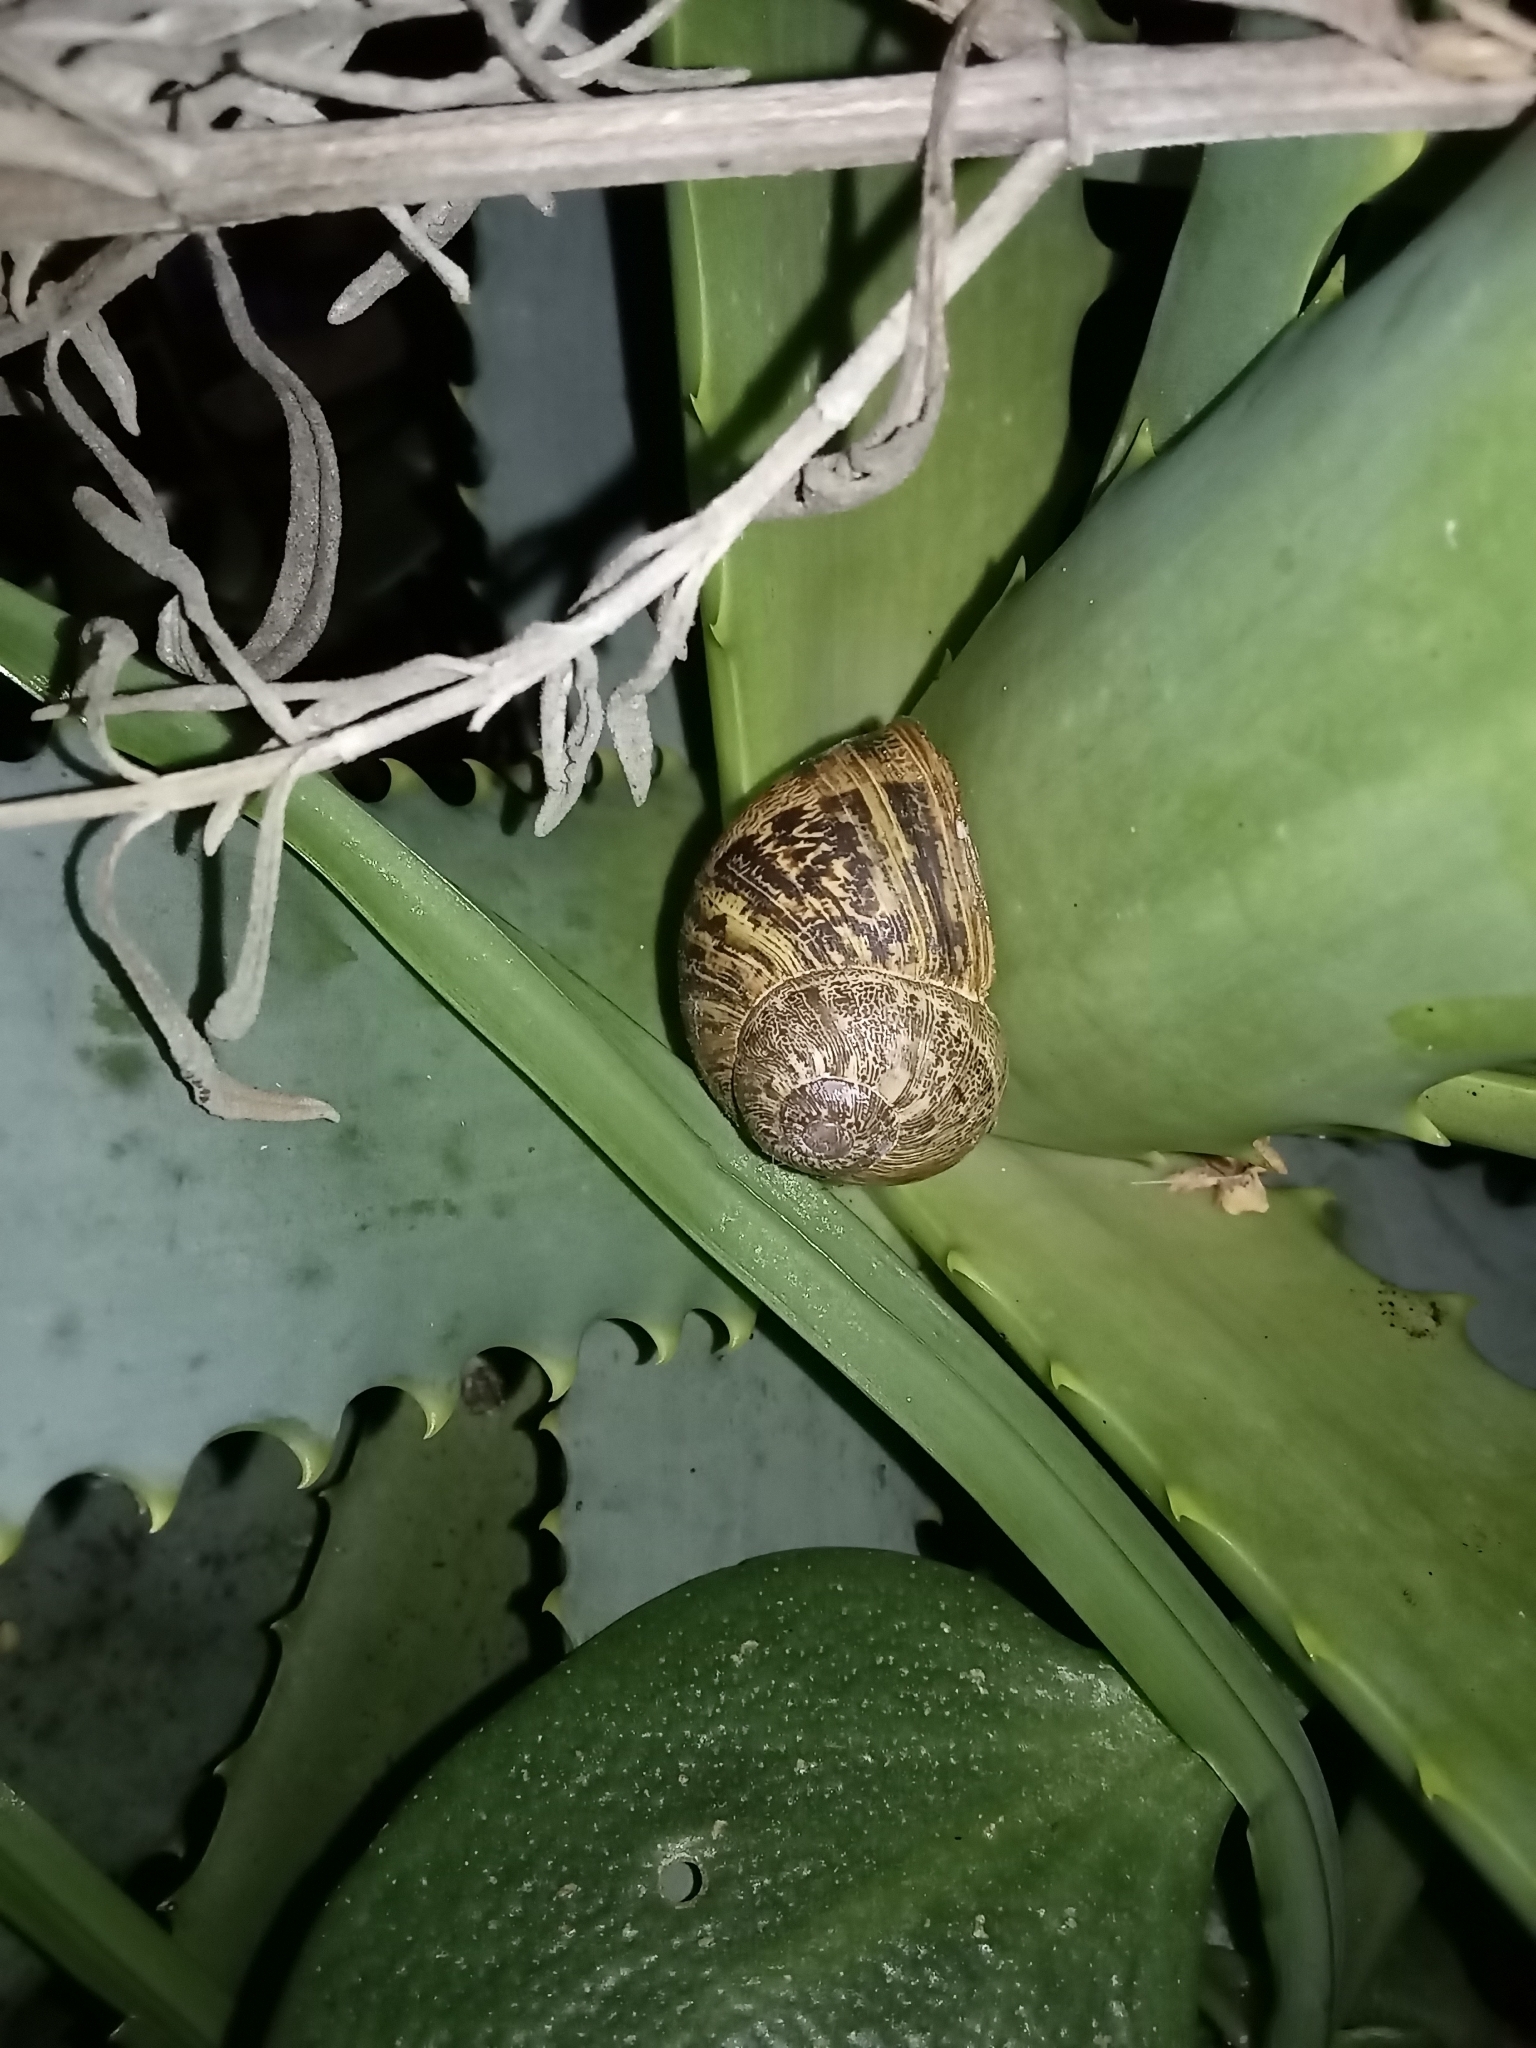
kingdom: Animalia
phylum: Mollusca
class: Gastropoda
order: Stylommatophora
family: Helicidae
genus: Cornu
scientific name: Cornu aspersum
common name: Brown garden snail
